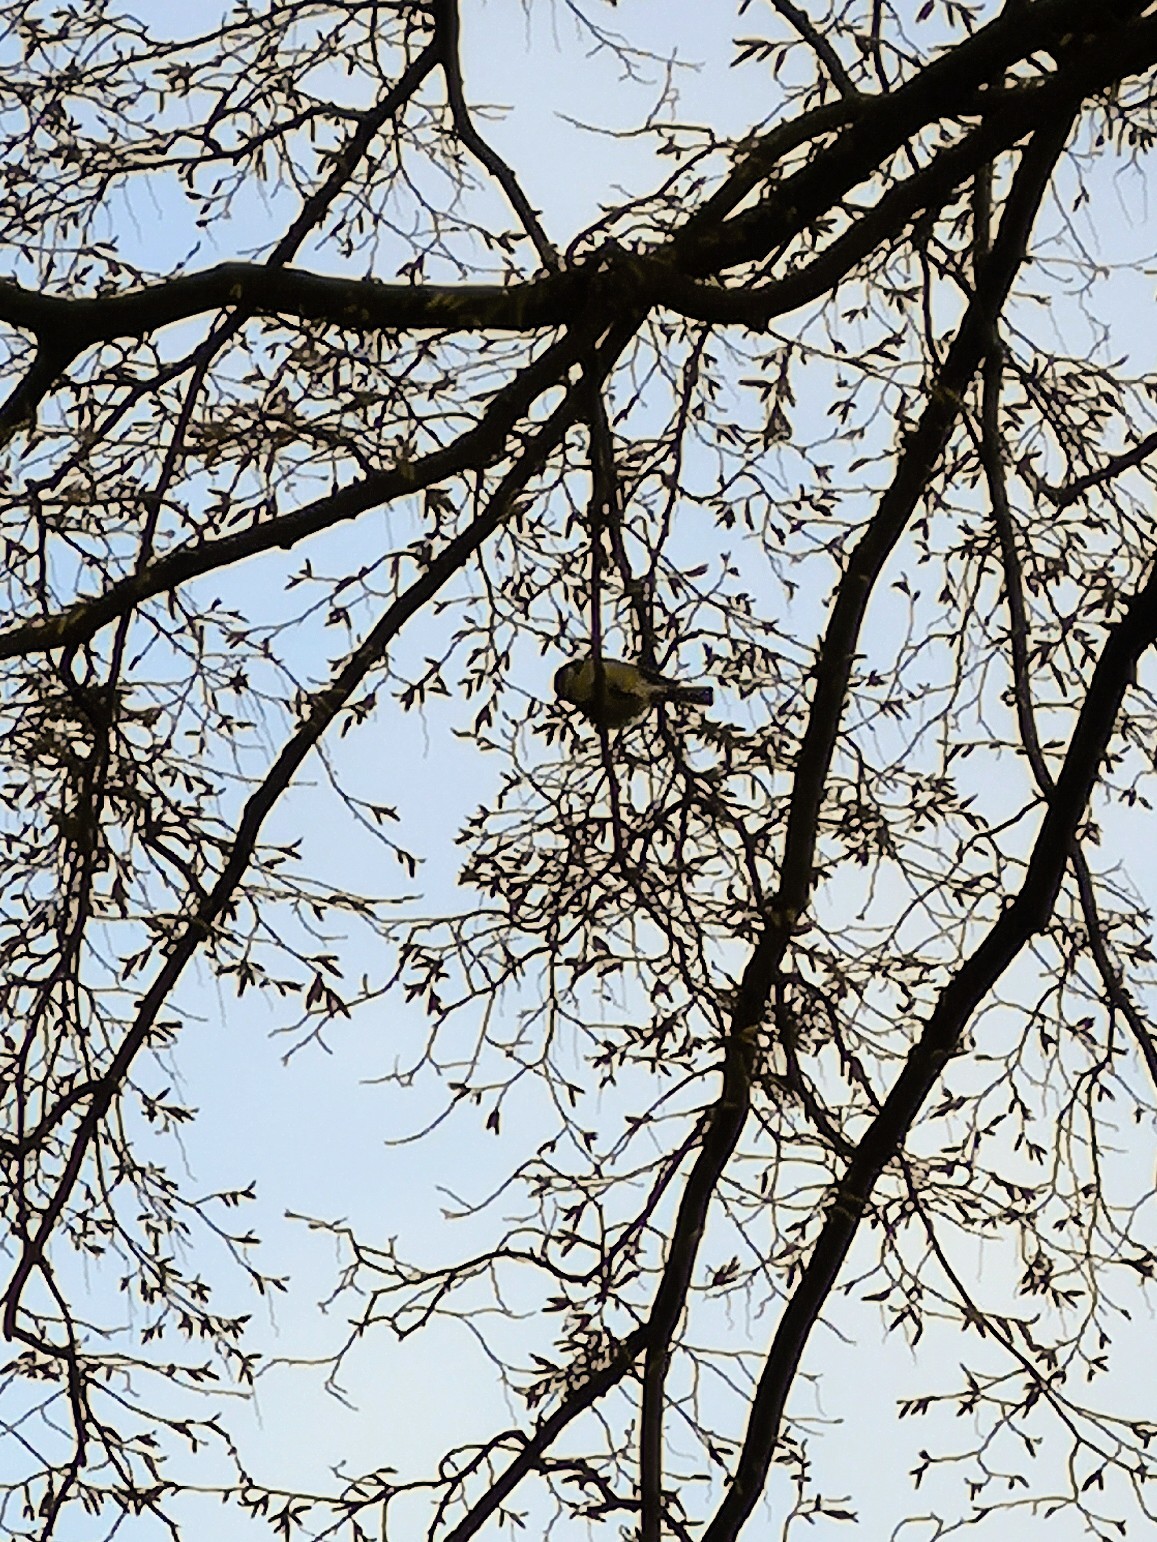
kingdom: Animalia
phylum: Chordata
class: Aves
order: Passeriformes
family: Paridae
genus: Parus
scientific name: Parus major
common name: Great tit
